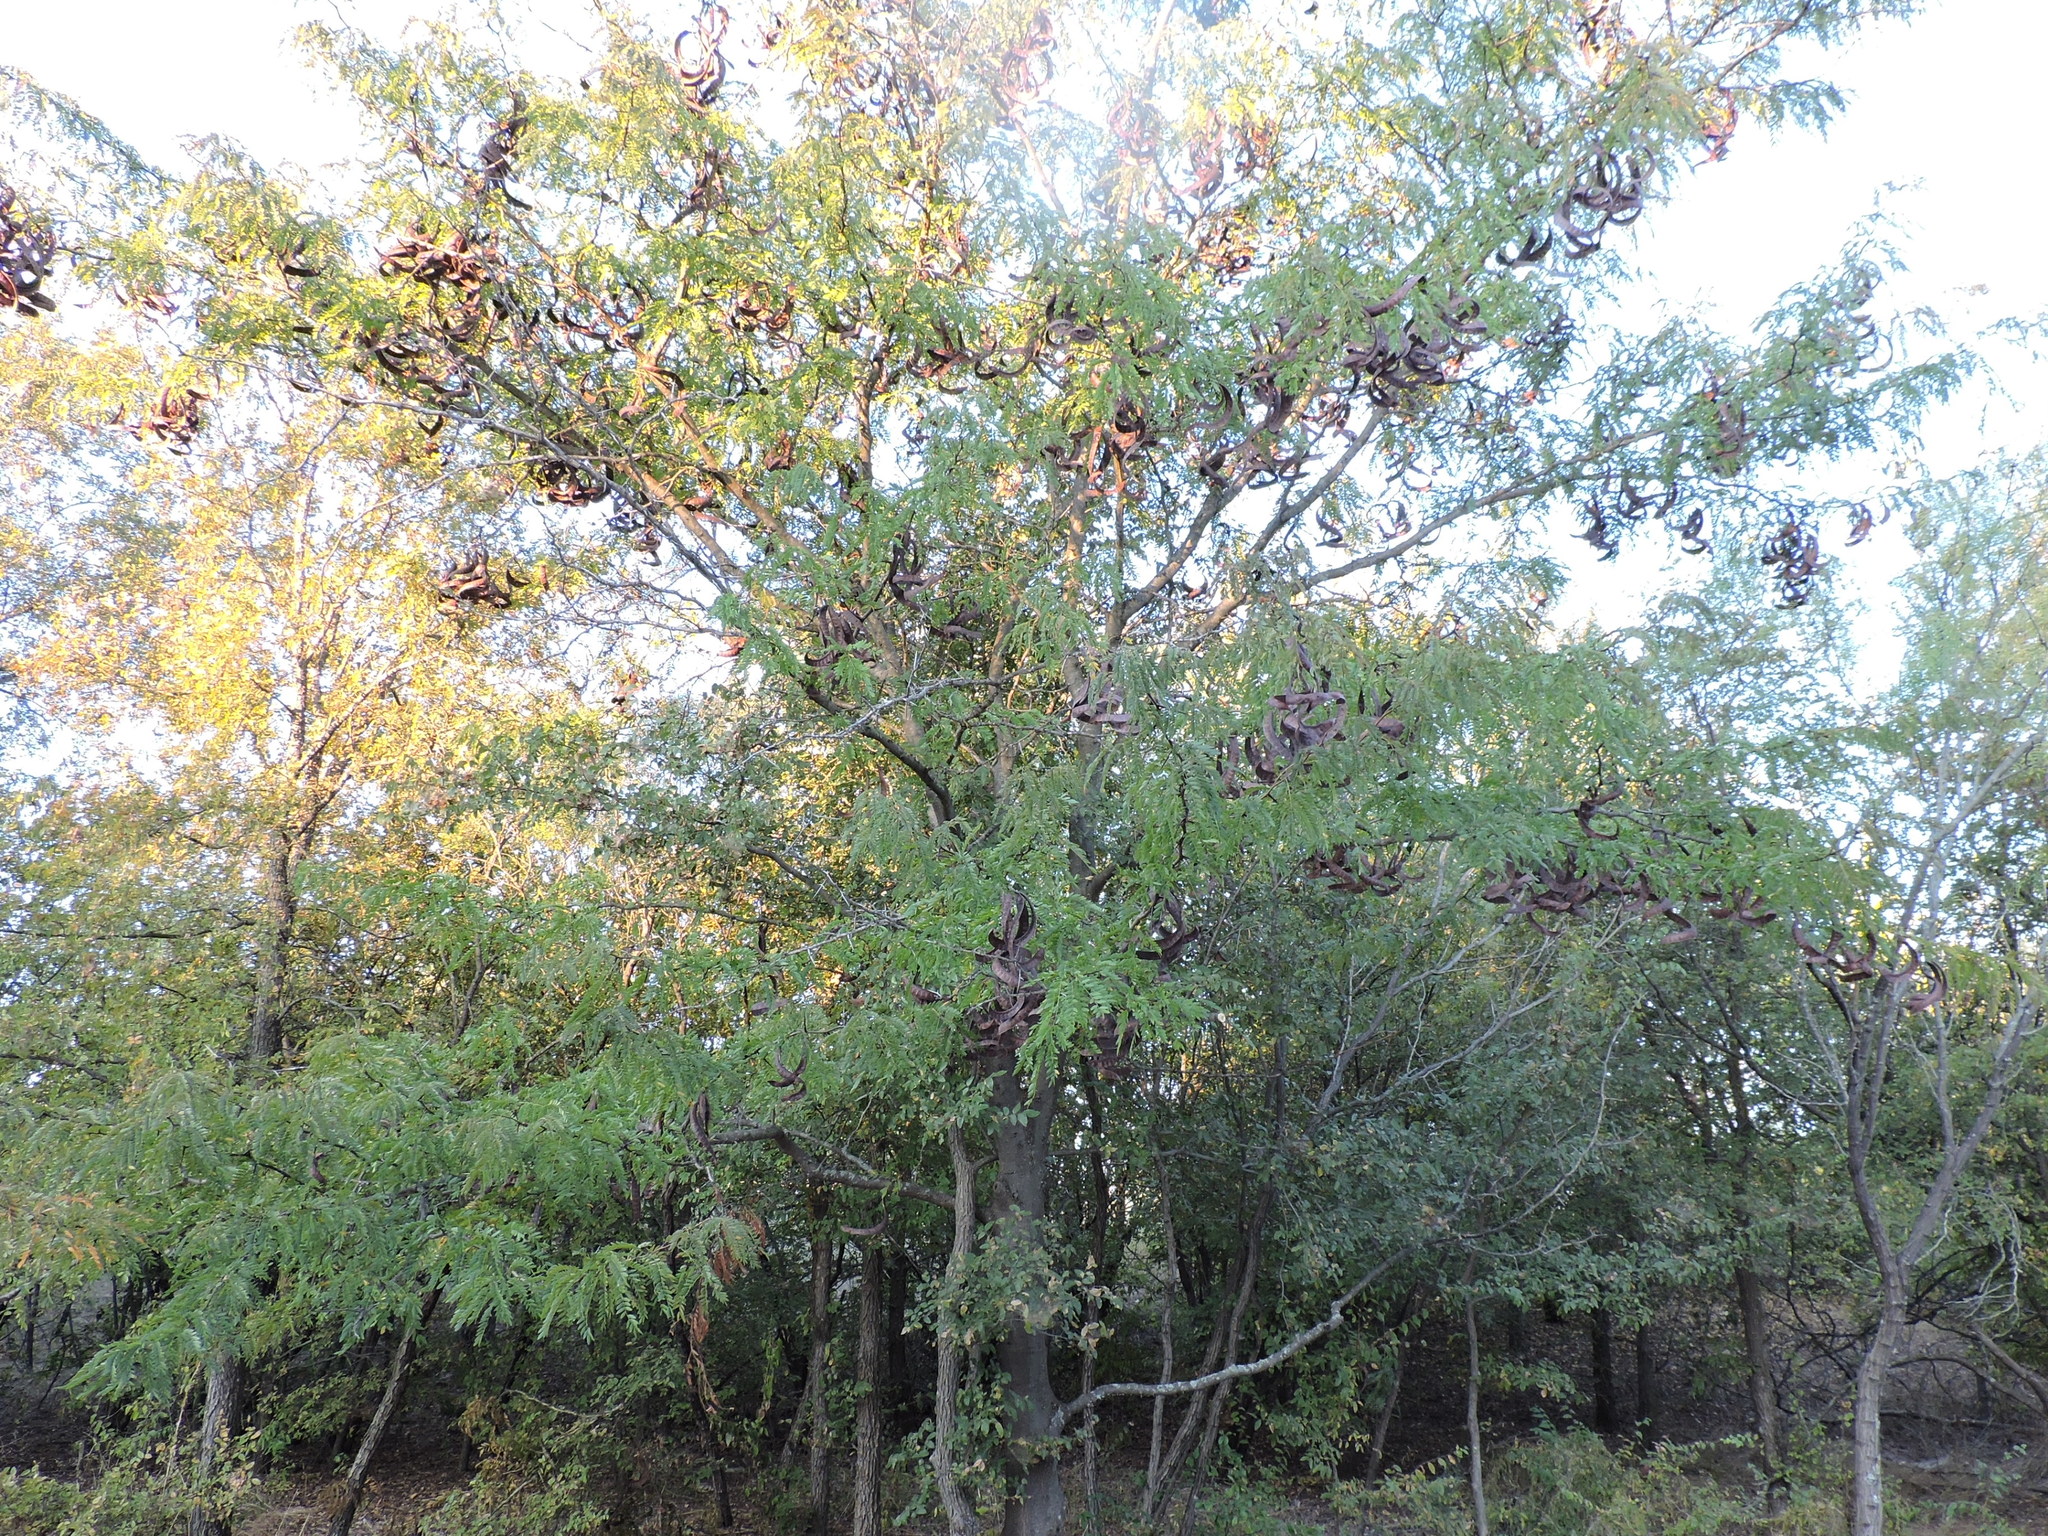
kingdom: Plantae
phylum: Tracheophyta
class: Magnoliopsida
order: Fabales
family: Fabaceae
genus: Gleditsia
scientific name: Gleditsia triacanthos
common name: Common honeylocust
